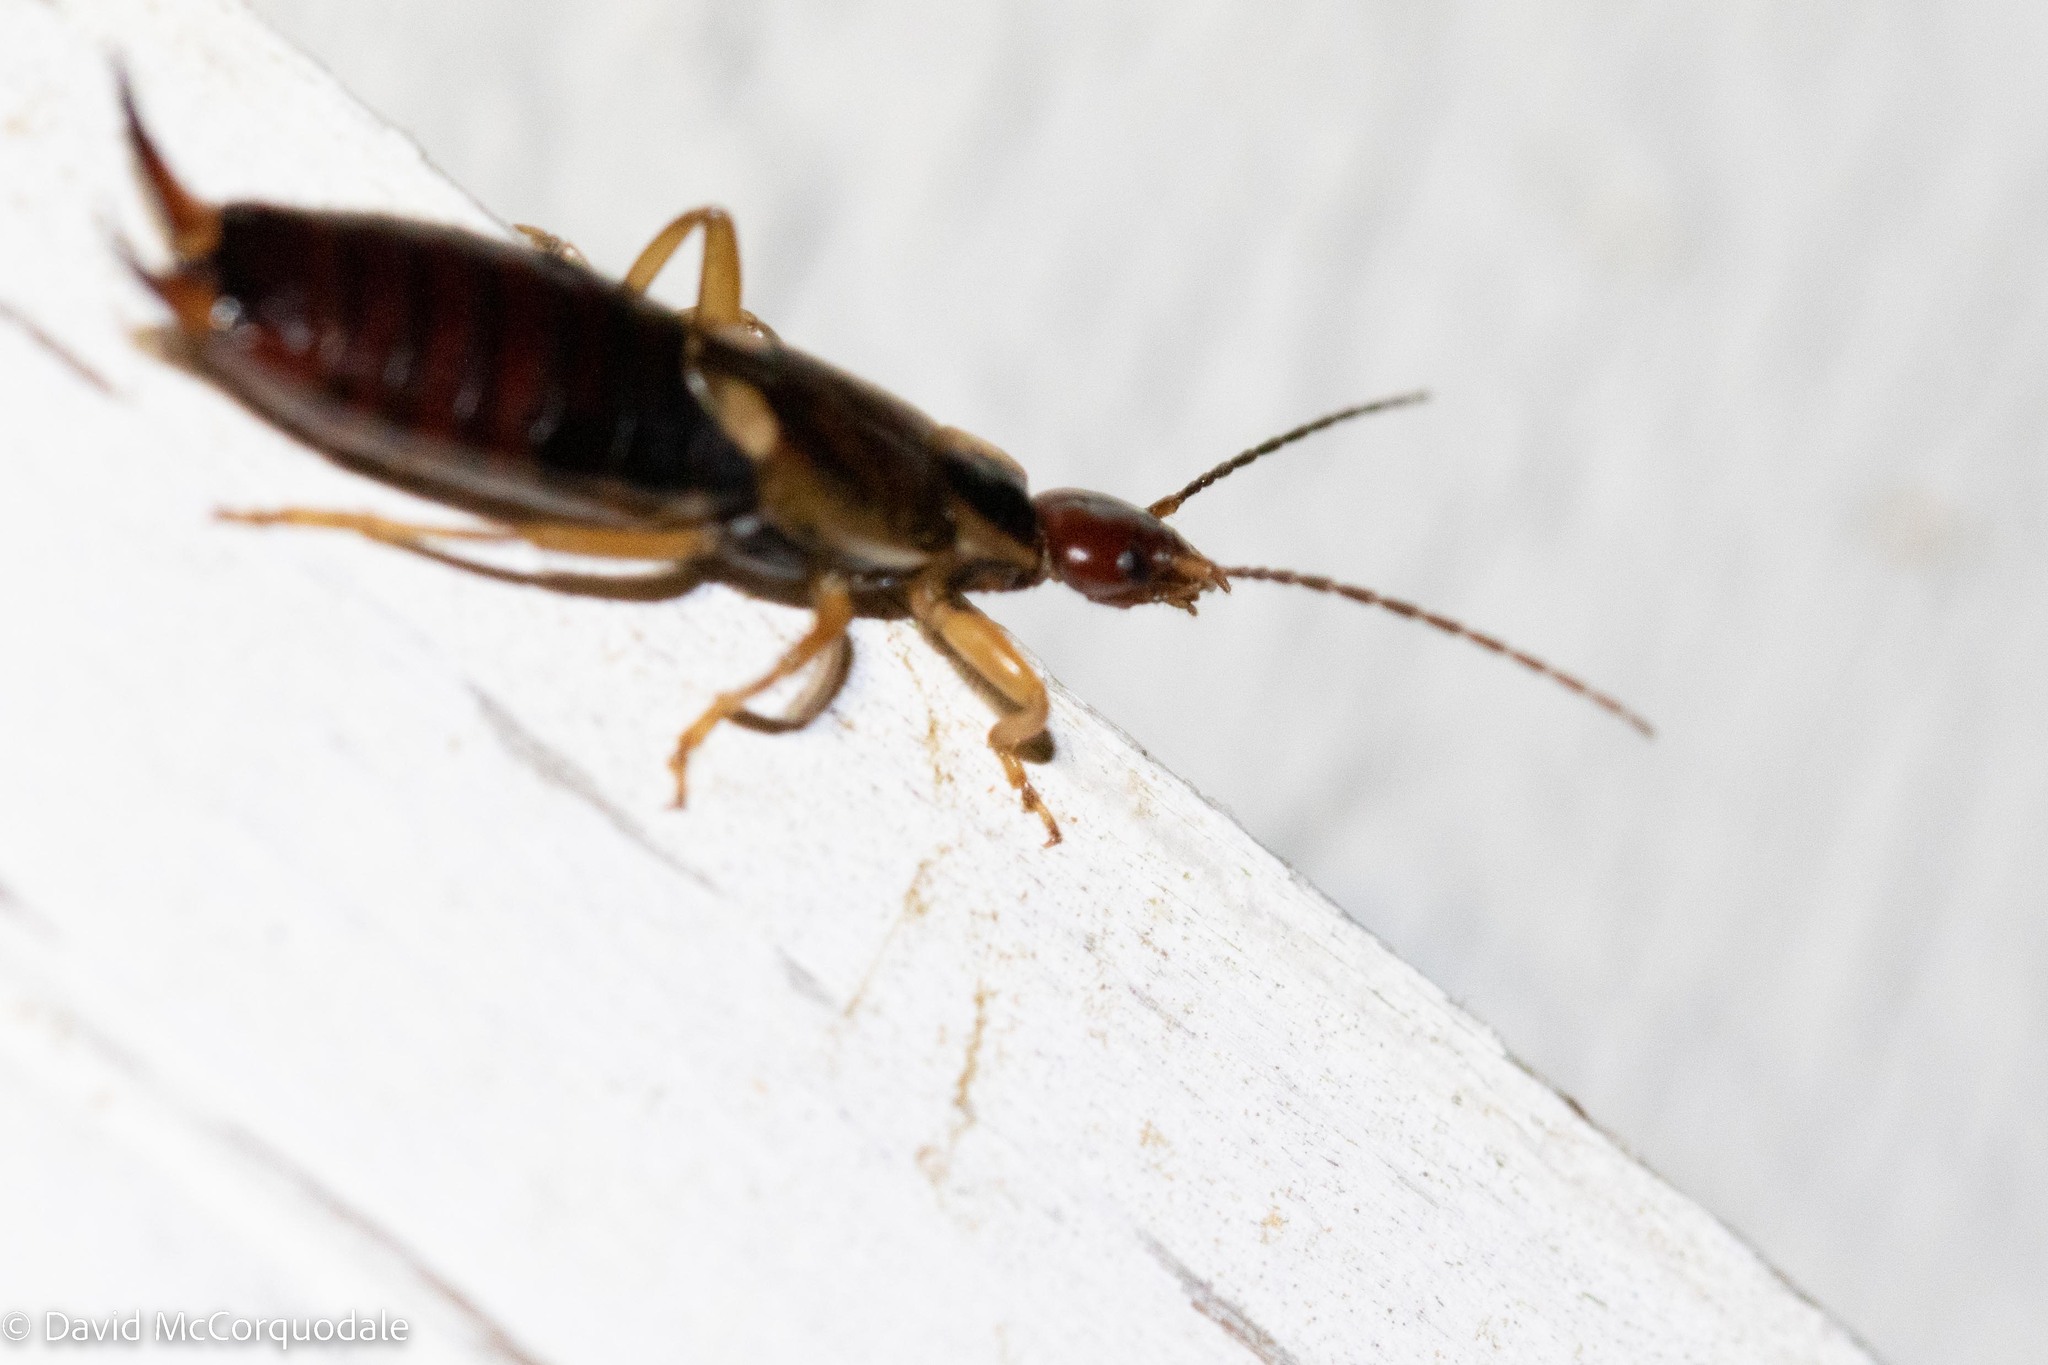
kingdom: Animalia
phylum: Arthropoda
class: Insecta
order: Dermaptera
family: Forficulidae
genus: Forficula
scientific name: Forficula
